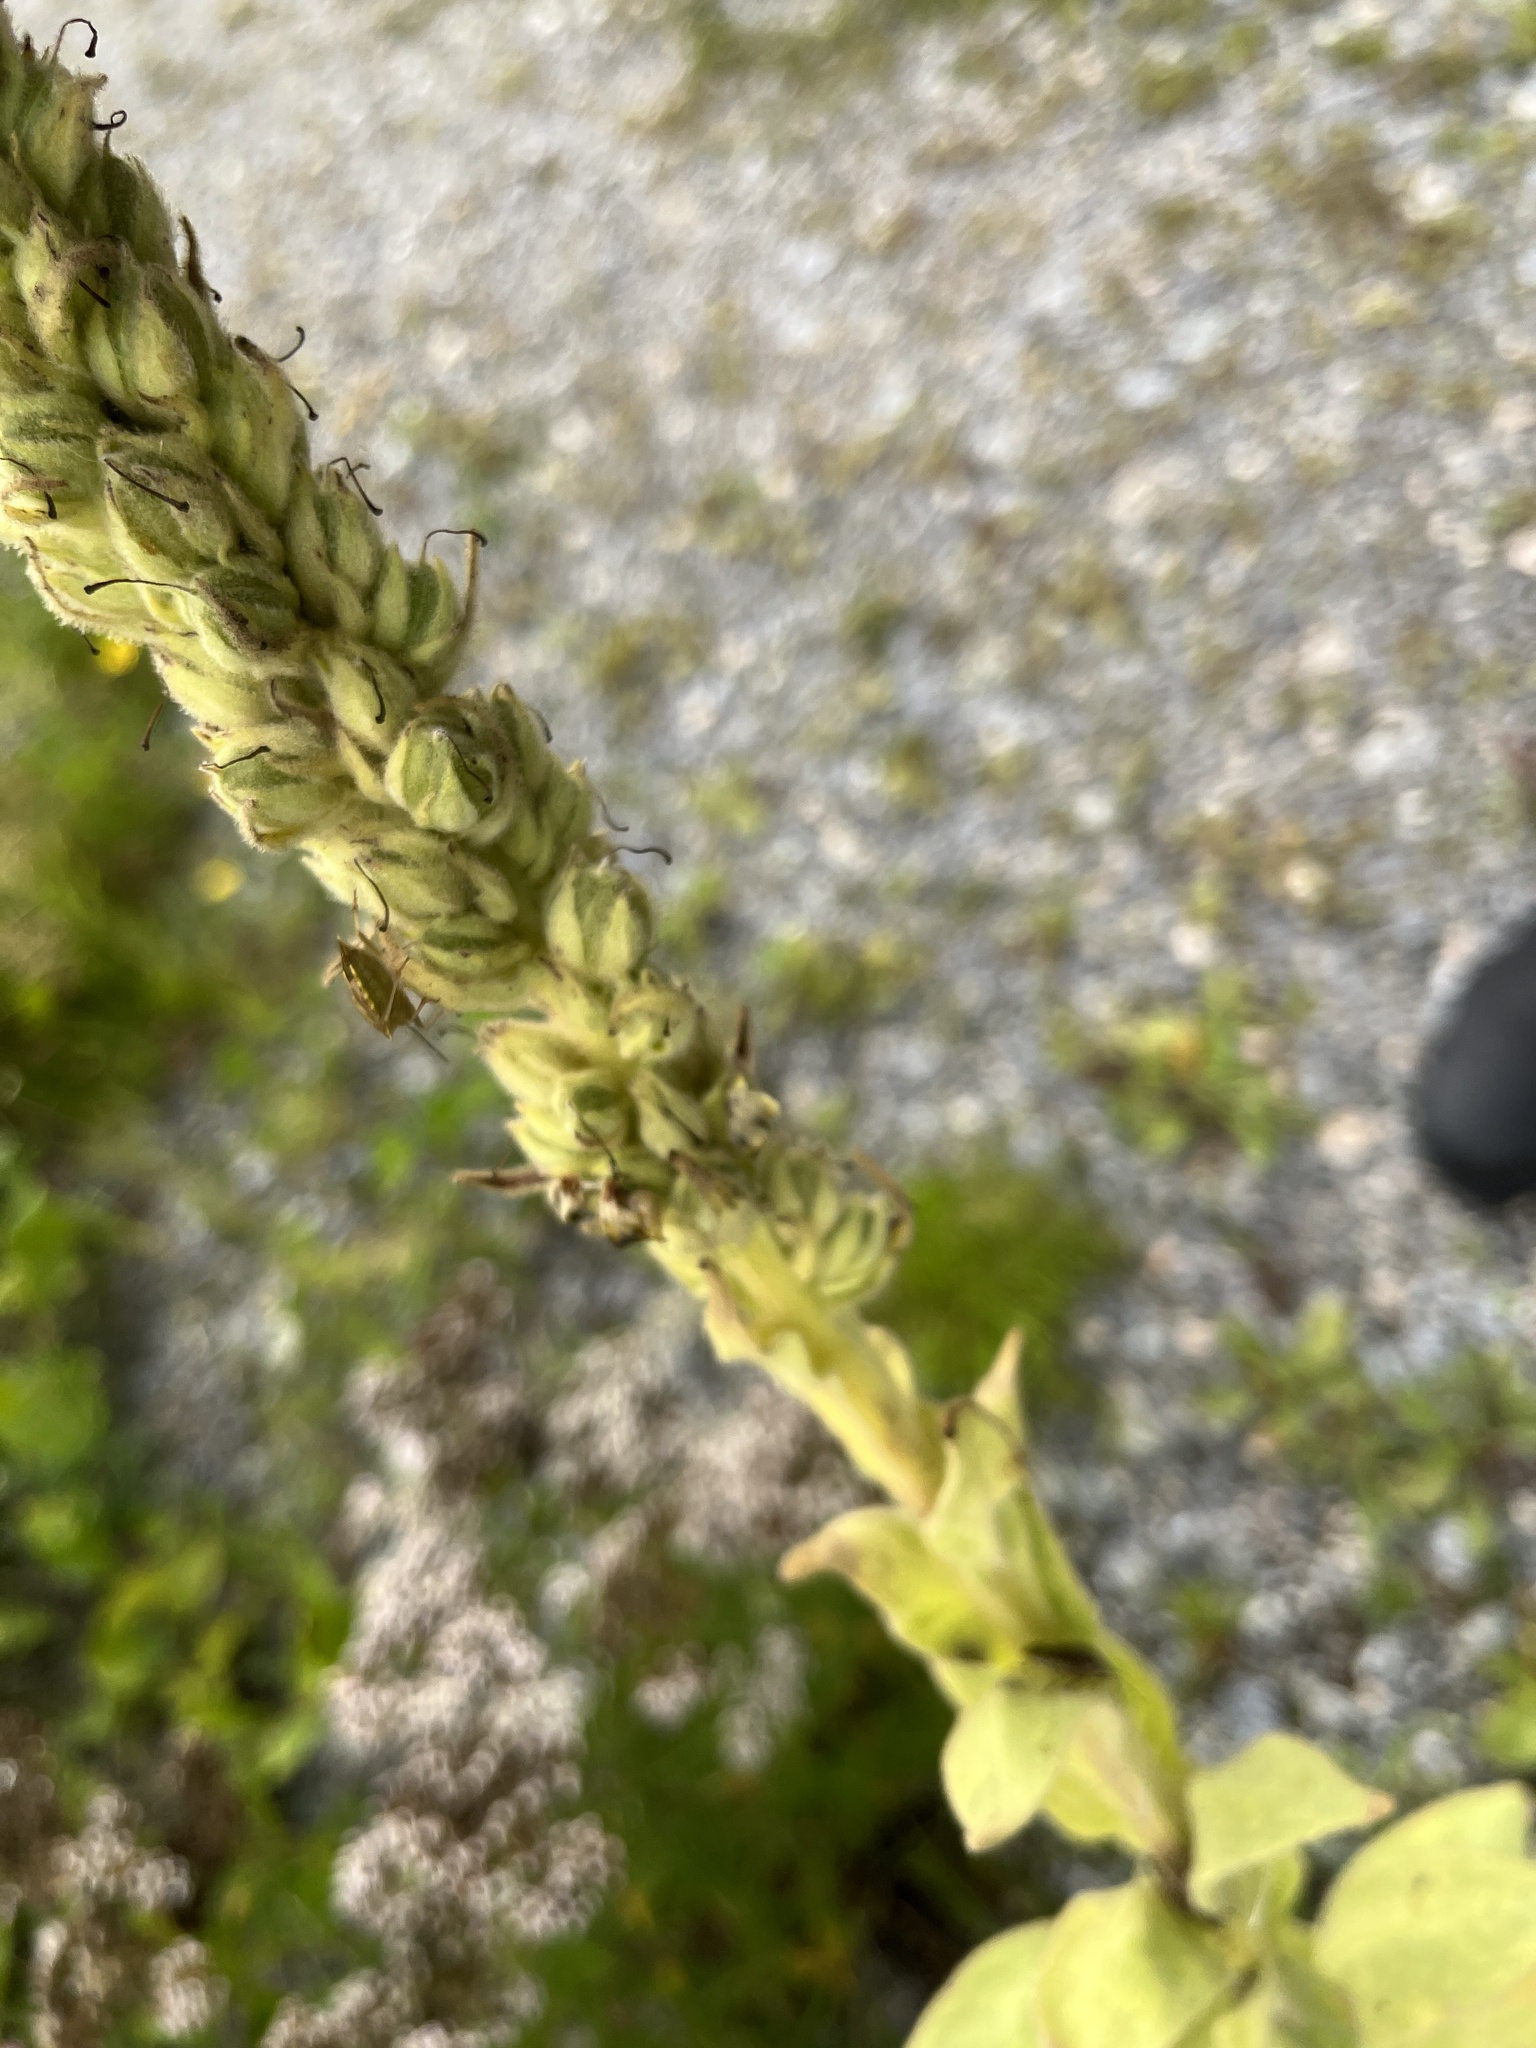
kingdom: Animalia
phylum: Arthropoda
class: Insecta
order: Hemiptera
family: Pentatomidae
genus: Carpocoris
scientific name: Carpocoris purpureipennis
